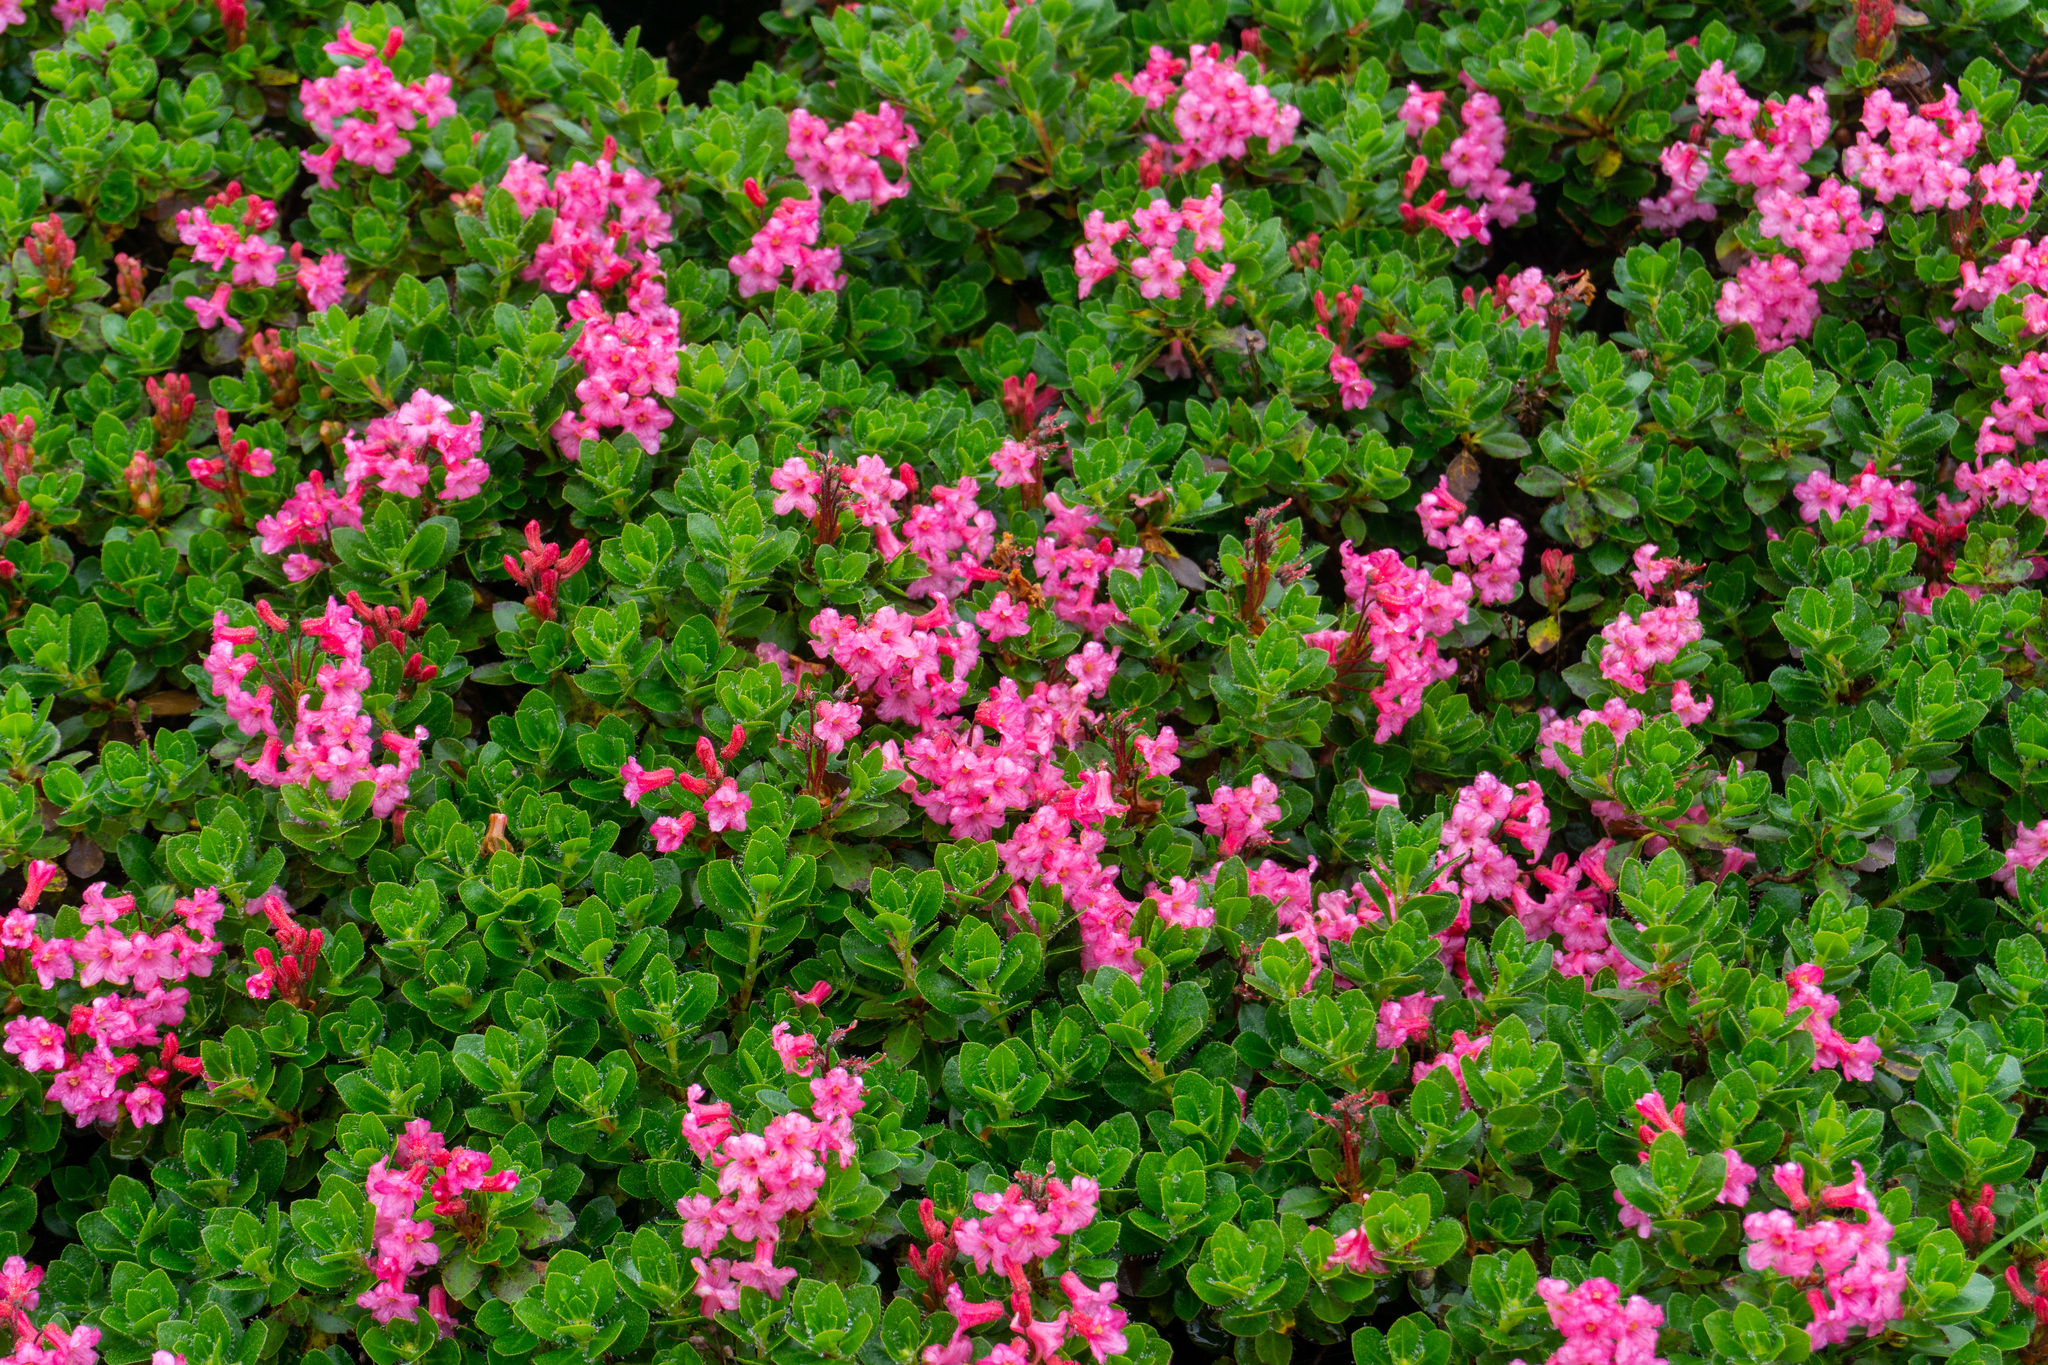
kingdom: Plantae
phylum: Tracheophyta
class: Magnoliopsida
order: Ericales
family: Ericaceae
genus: Rhododendron
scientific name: Rhododendron hirsutum
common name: Hairy alpenrose
